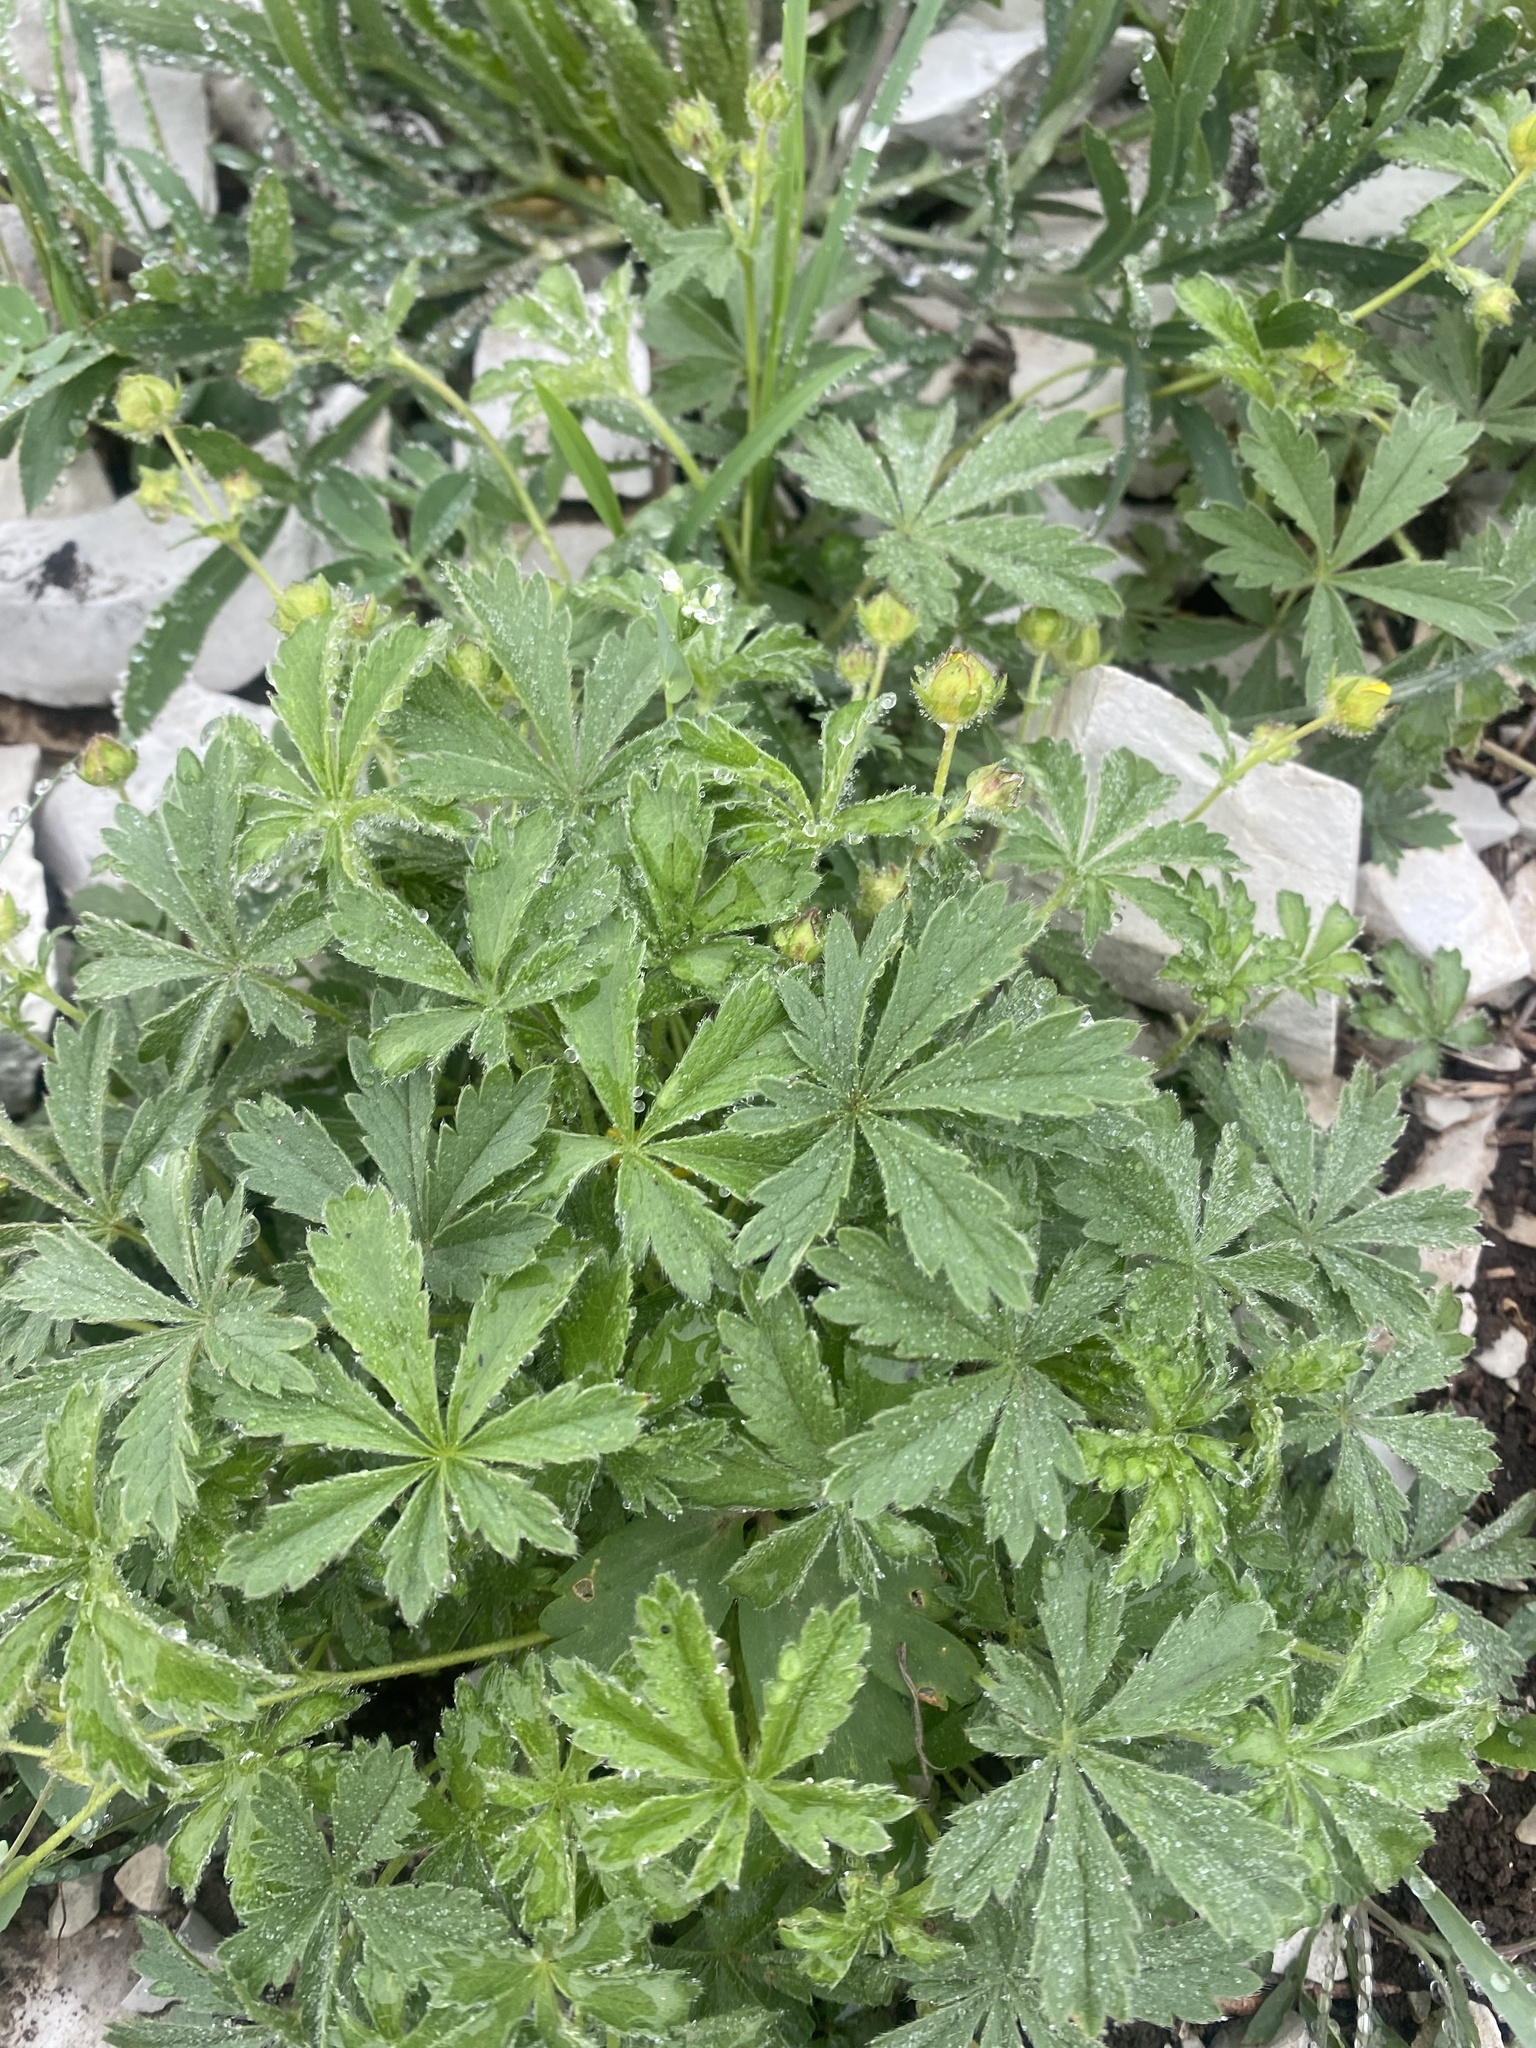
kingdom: Plantae
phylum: Tracheophyta
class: Magnoliopsida
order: Rosales
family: Rosaceae
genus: Potentilla
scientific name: Potentilla sphenophylla
